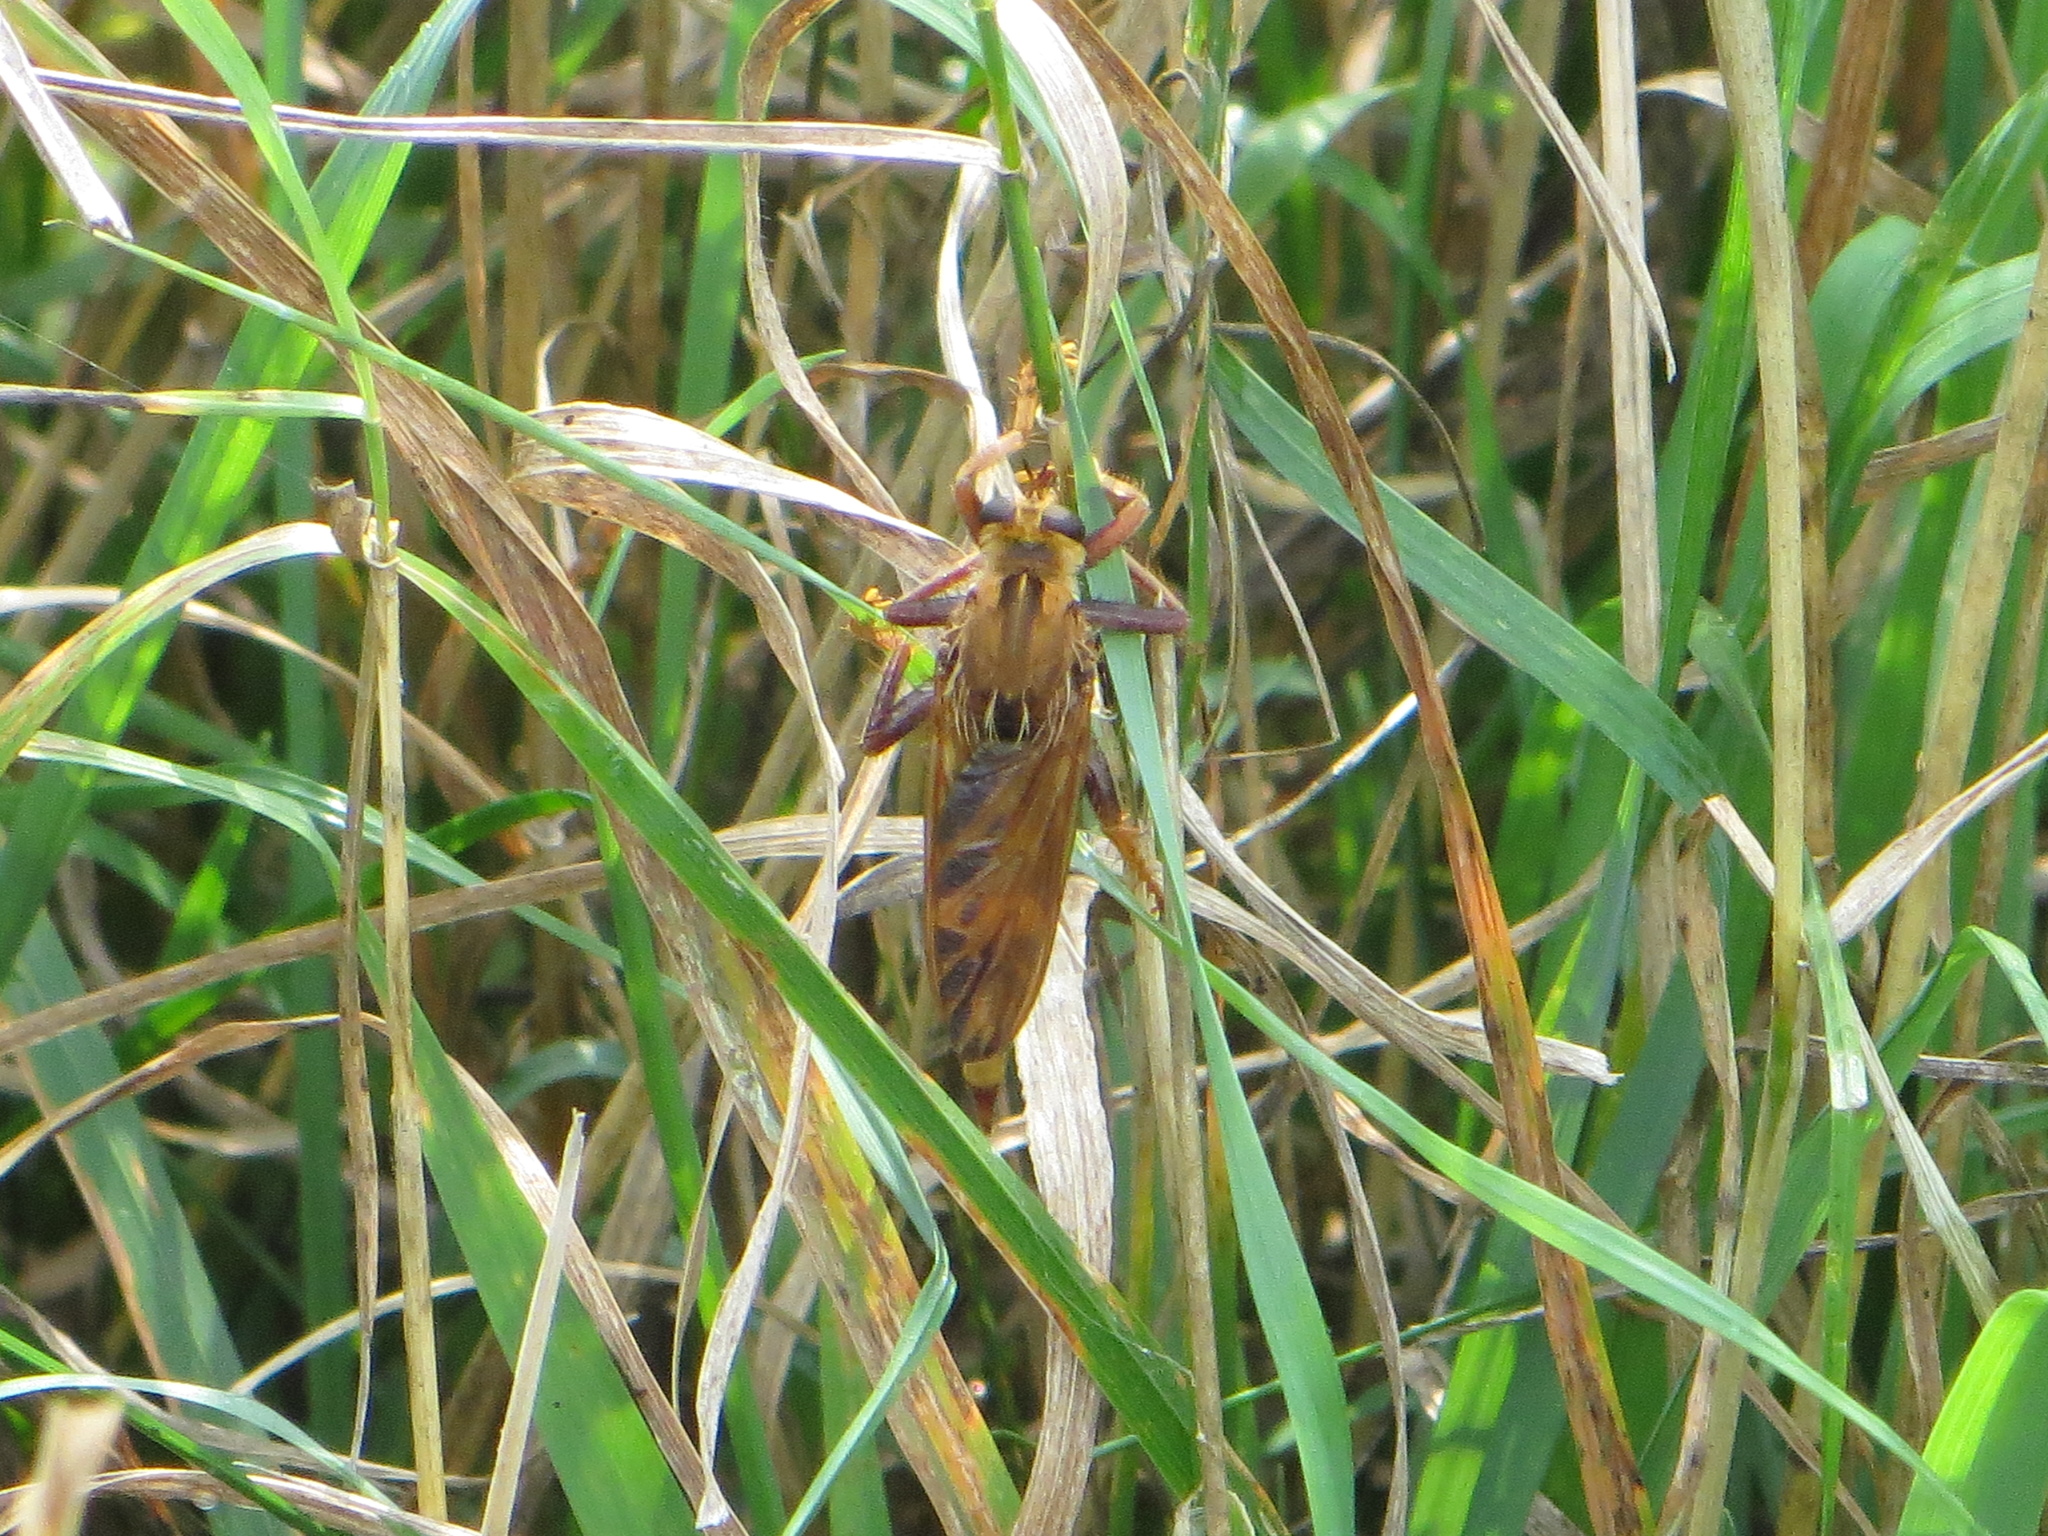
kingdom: Animalia
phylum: Arthropoda
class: Insecta
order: Diptera
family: Asilidae
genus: Asilus
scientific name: Asilus crabroniformis
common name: Hornet robberfly
